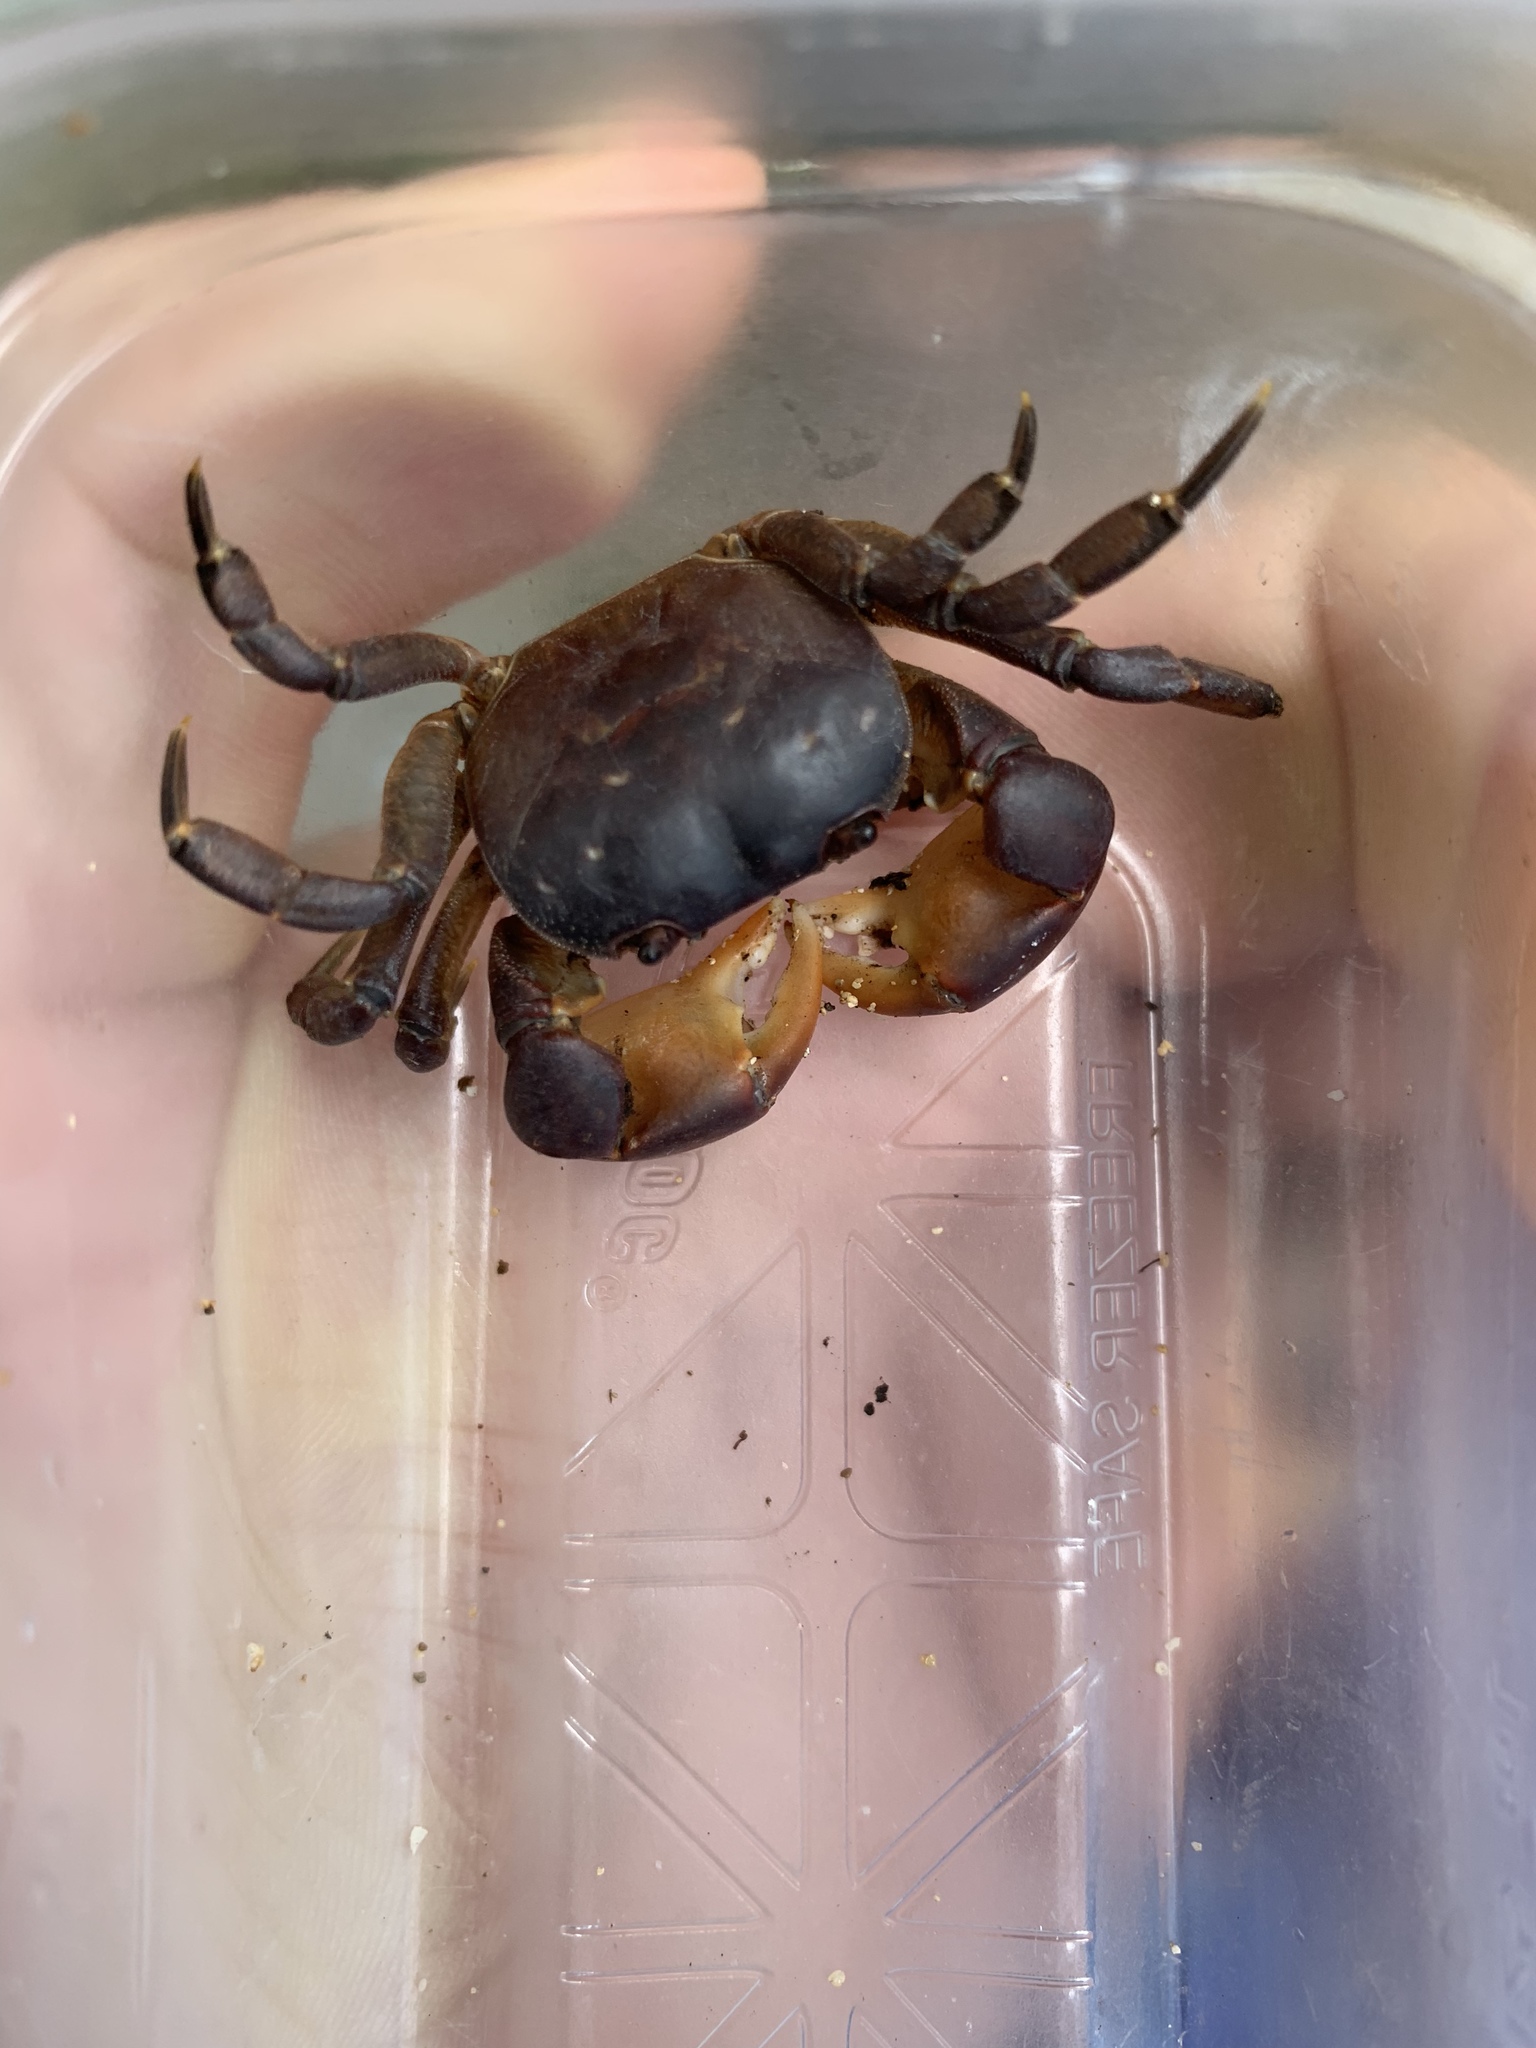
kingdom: Animalia
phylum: Arthropoda
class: Malacostraca
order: Decapoda
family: Varunidae
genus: Cyclograpsus
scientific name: Cyclograpsus henshawi
